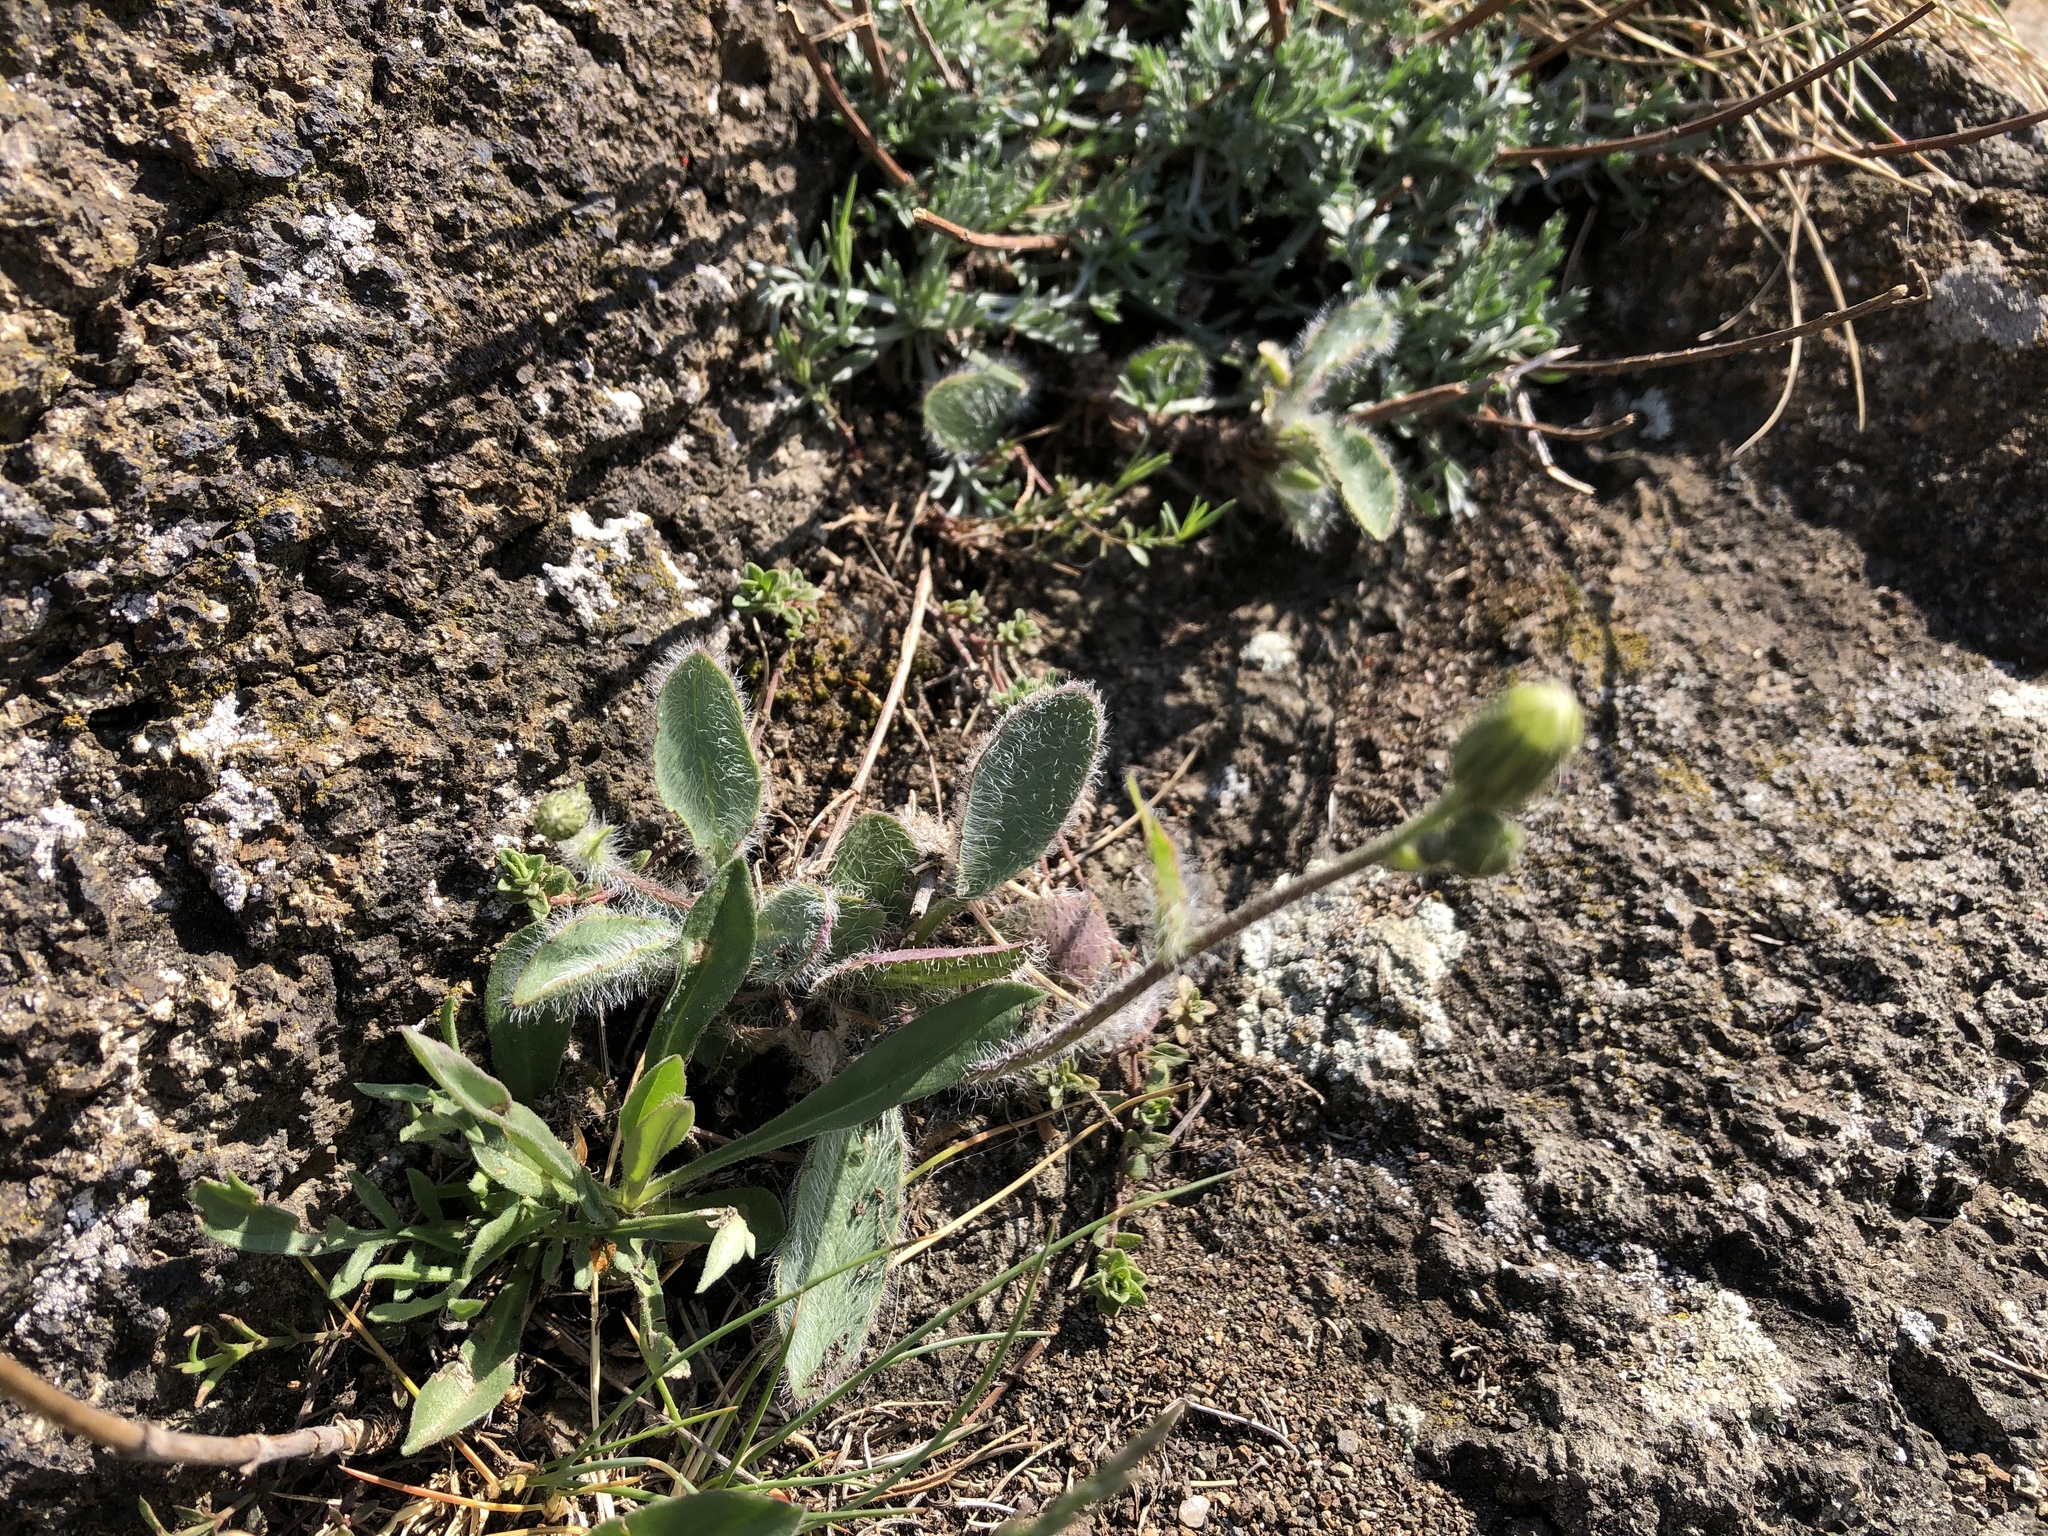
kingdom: Plantae
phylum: Tracheophyta
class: Magnoliopsida
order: Asterales
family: Asteraceae
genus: Pilosella
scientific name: Pilosella officinarum
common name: Mouse-ear hawkweed
